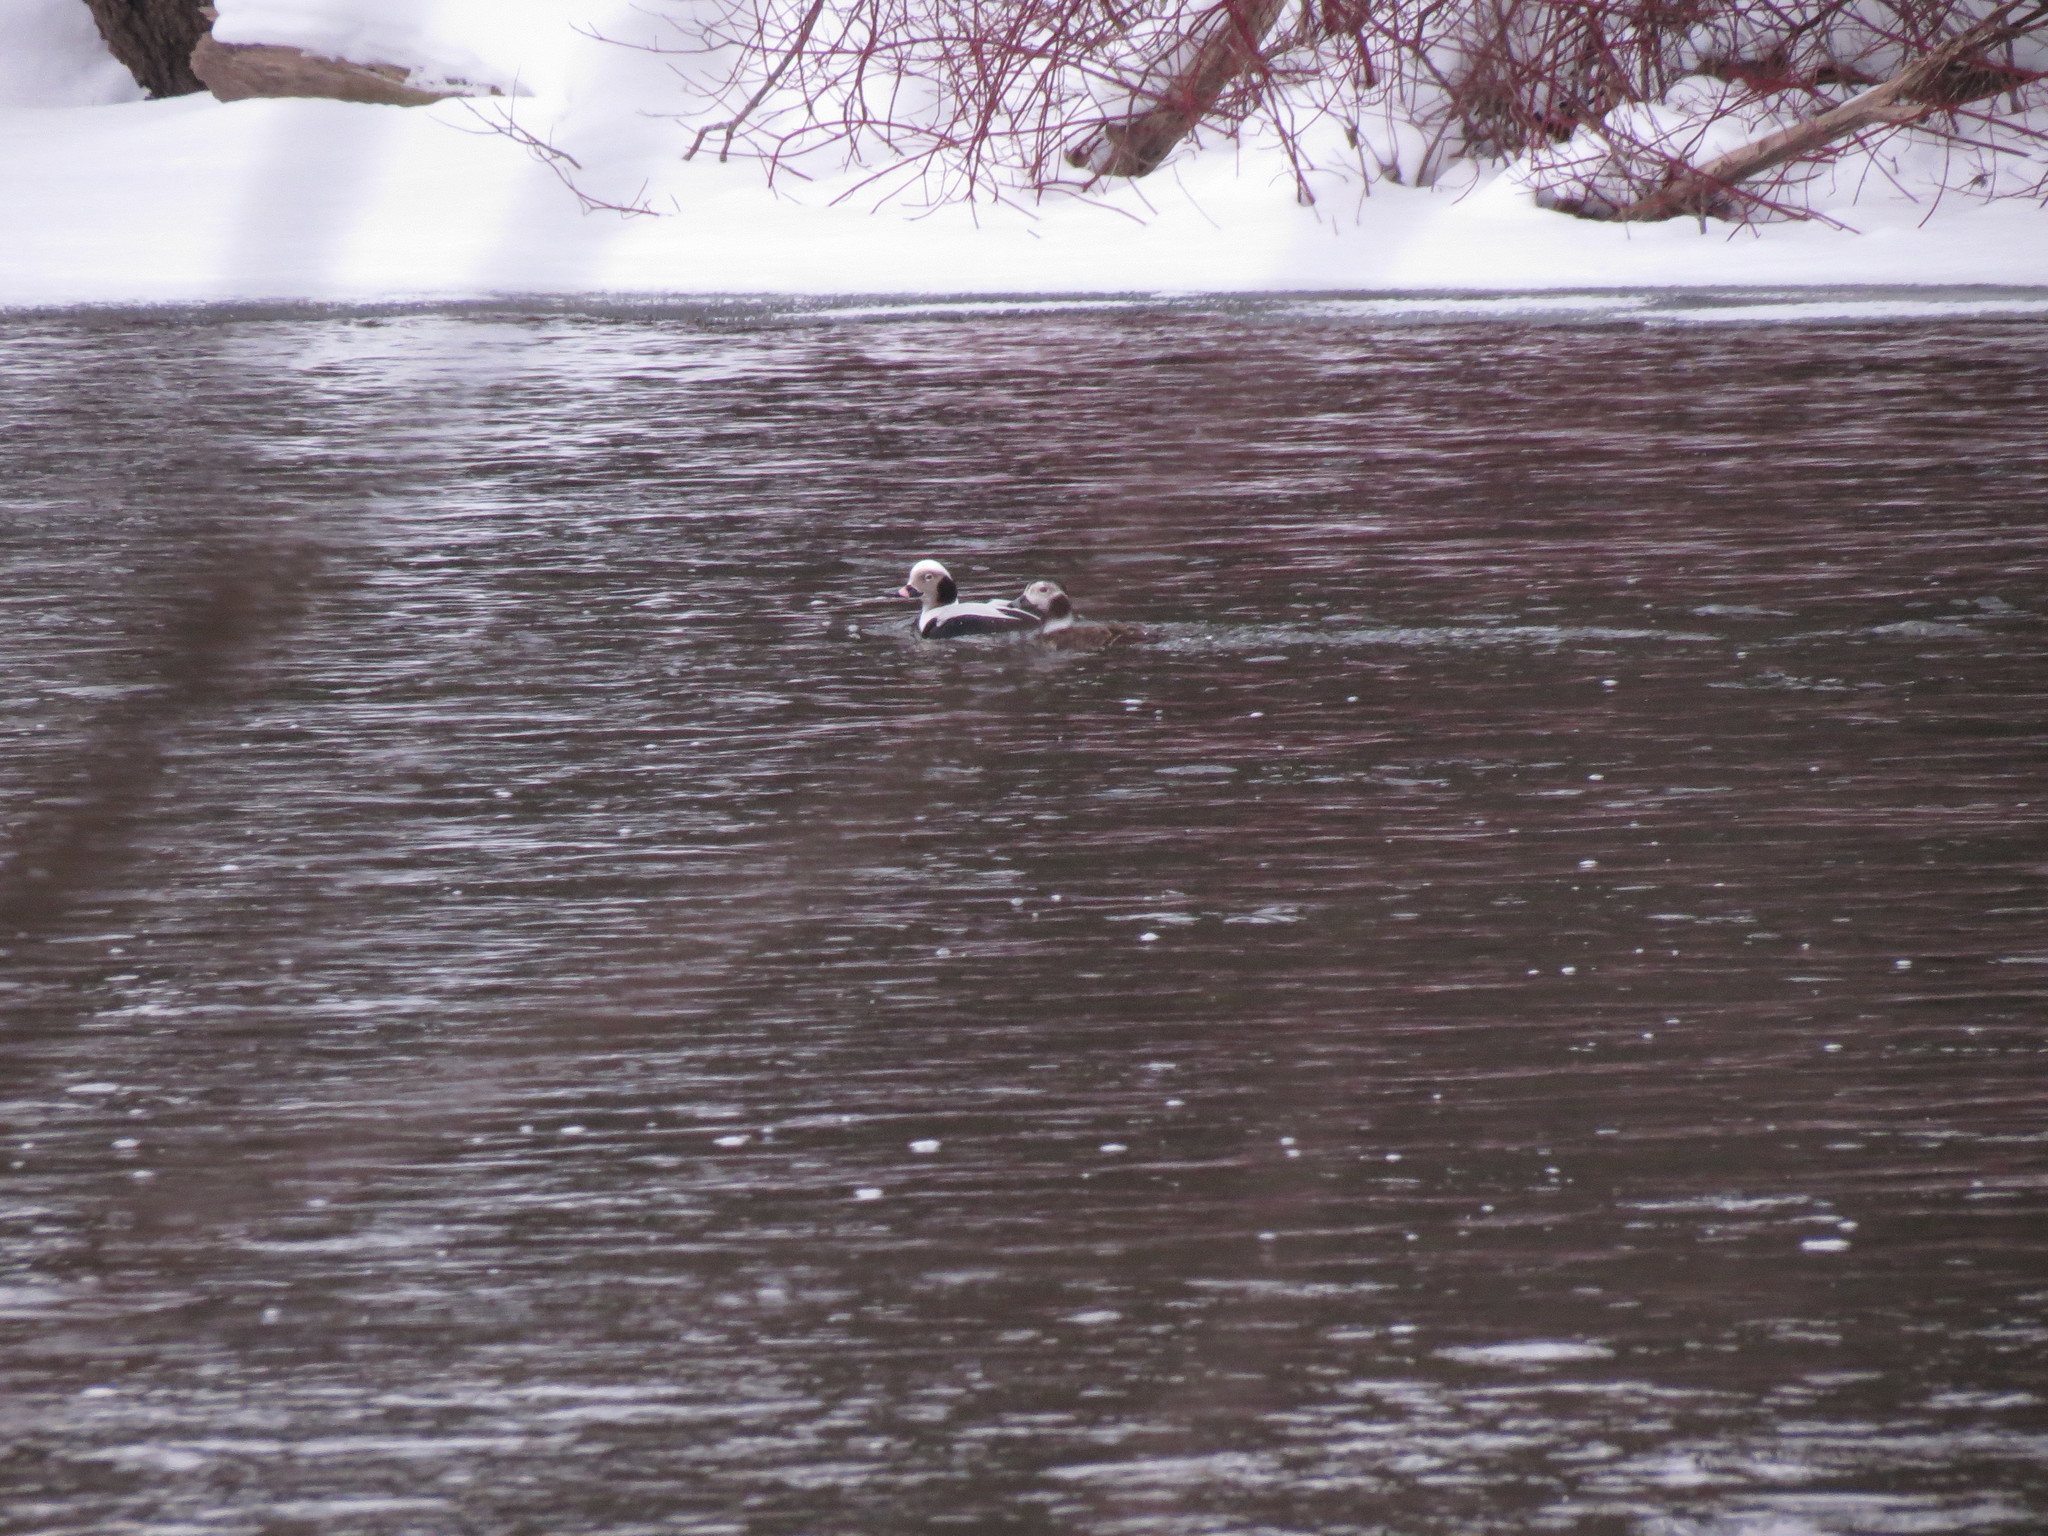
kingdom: Animalia
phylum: Chordata
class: Aves
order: Anseriformes
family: Anatidae
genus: Clangula
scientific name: Clangula hyemalis
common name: Long-tailed duck
